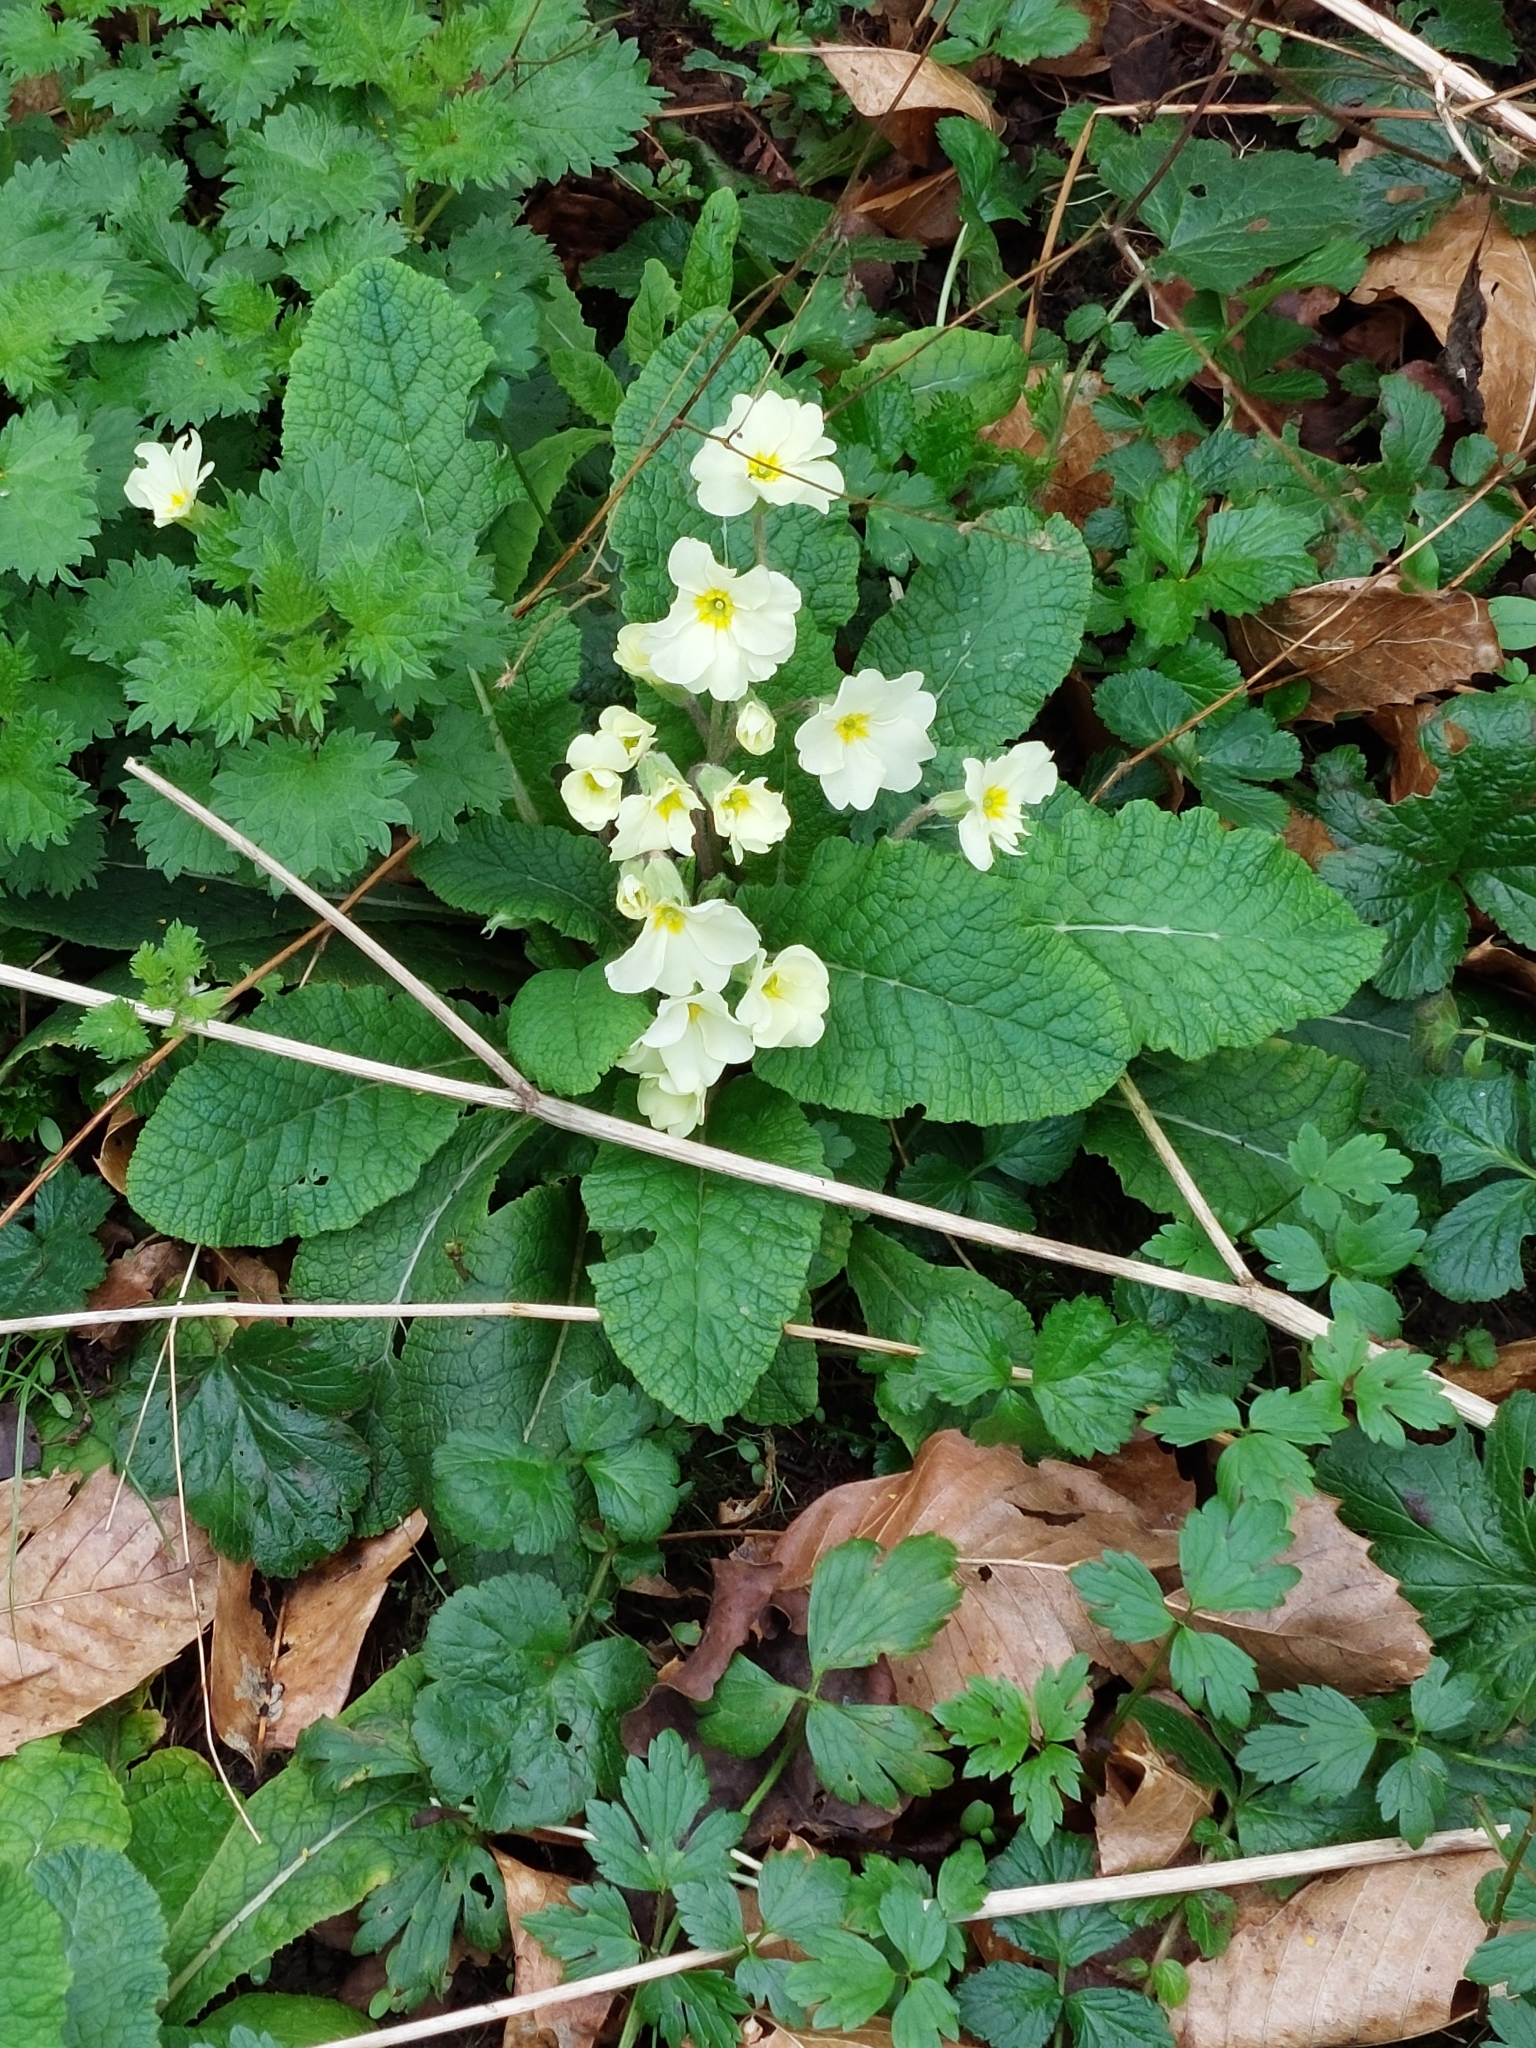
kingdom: Plantae
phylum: Tracheophyta
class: Magnoliopsida
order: Ericales
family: Primulaceae
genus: Primula
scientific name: Primula vulgaris
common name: Primrose
